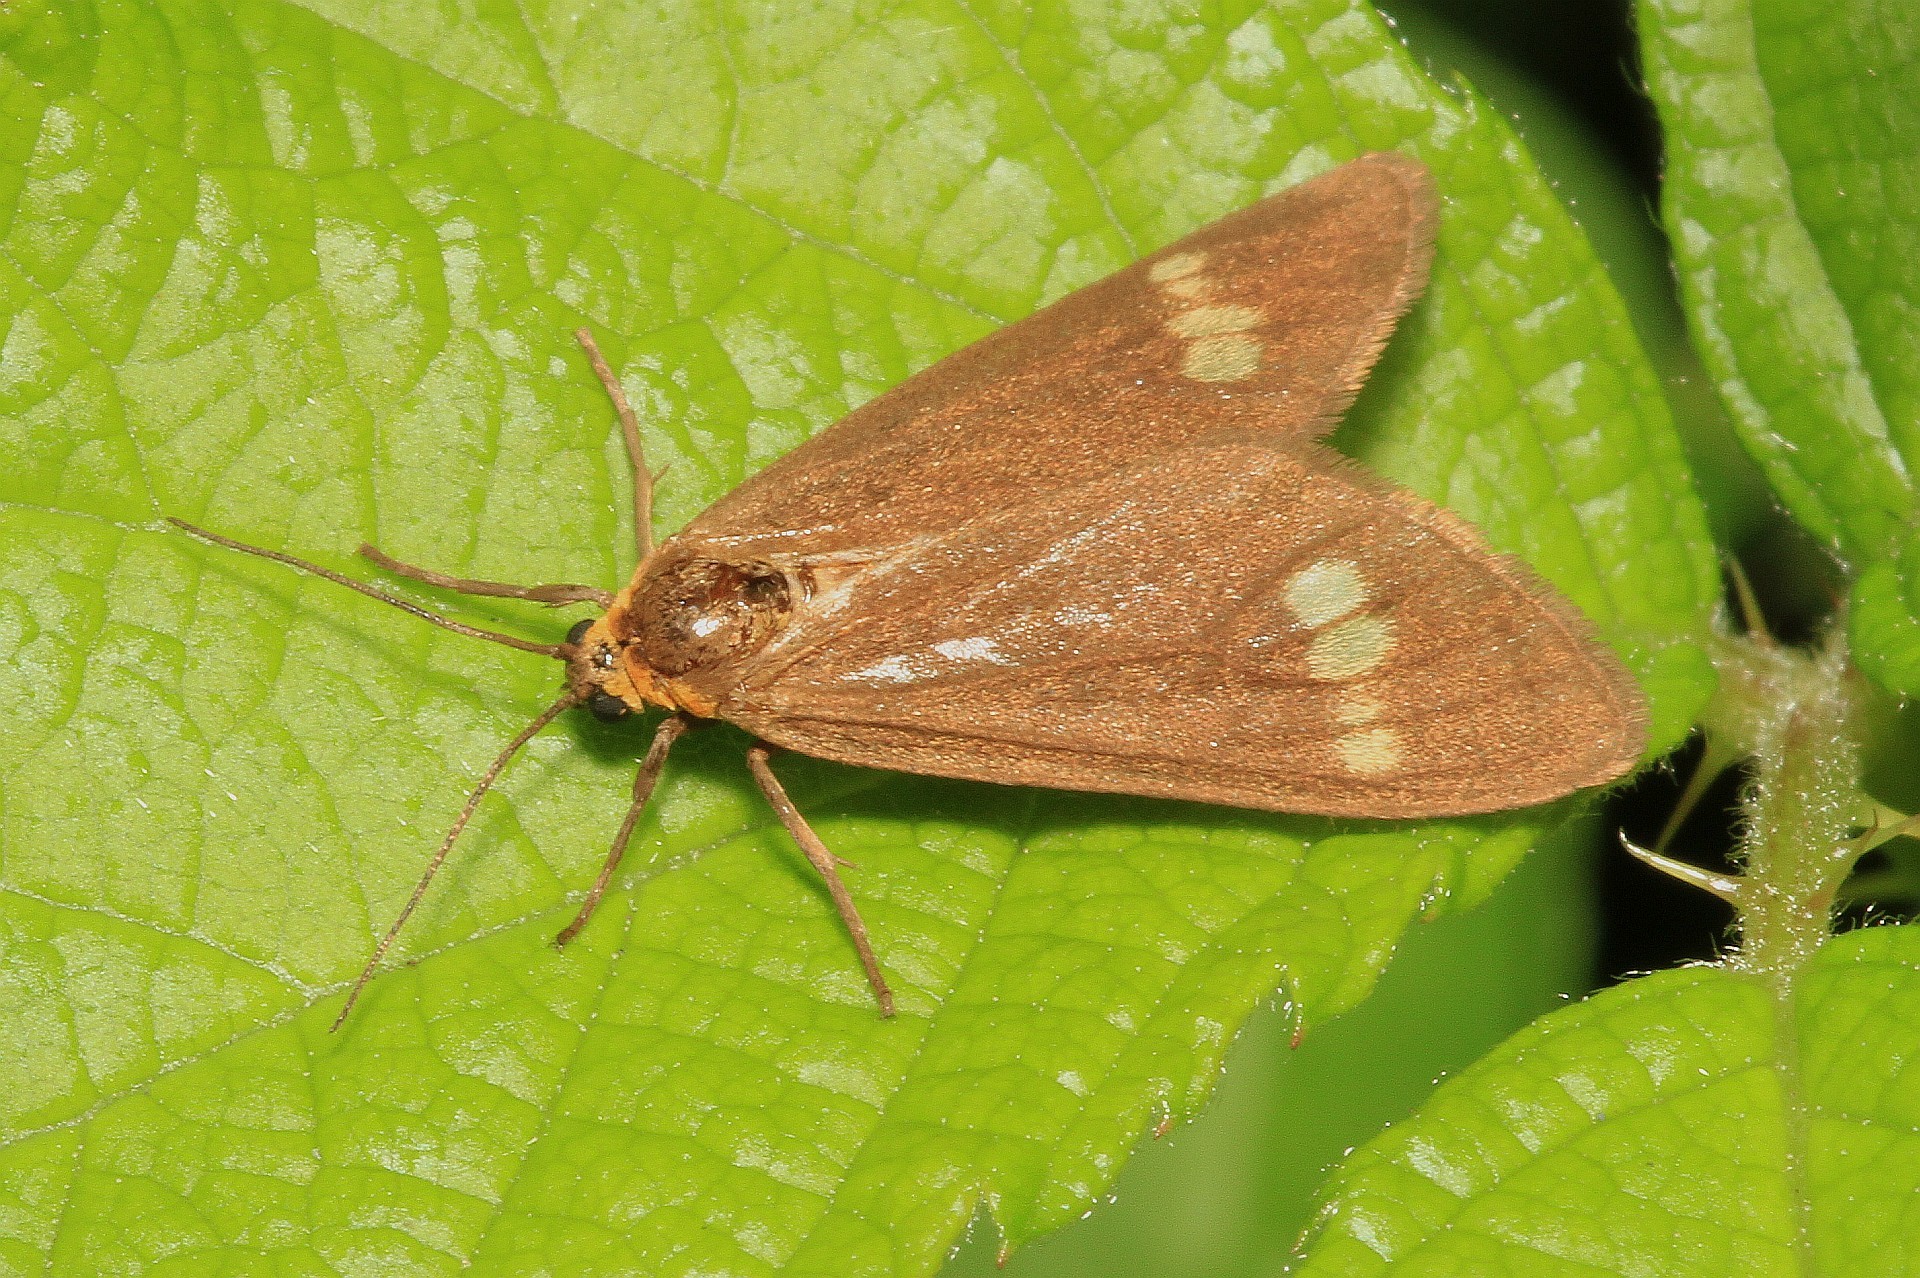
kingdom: Animalia
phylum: Arthropoda
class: Insecta
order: Lepidoptera
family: Erebidae
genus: Dysauxes
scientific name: Dysauxes ancilla
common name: The handmaid
